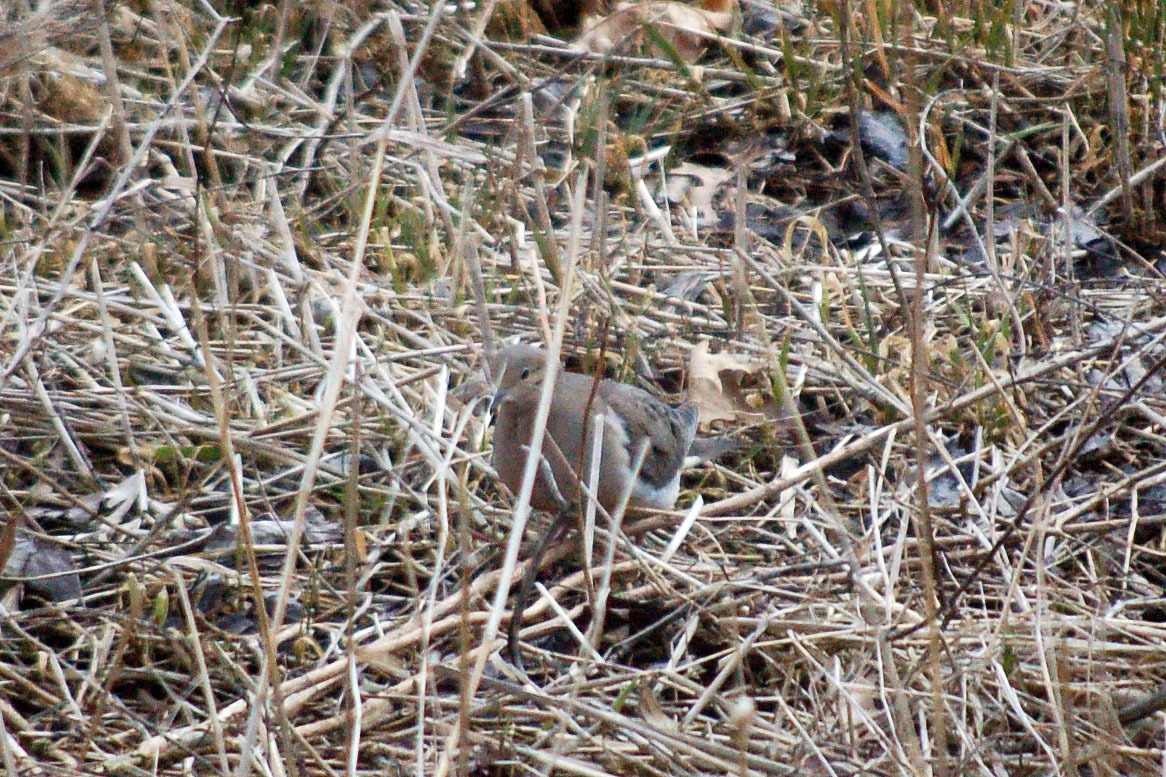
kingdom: Animalia
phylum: Chordata
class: Aves
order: Columbiformes
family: Columbidae
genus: Zenaida
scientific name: Zenaida macroura
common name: Mourning dove
